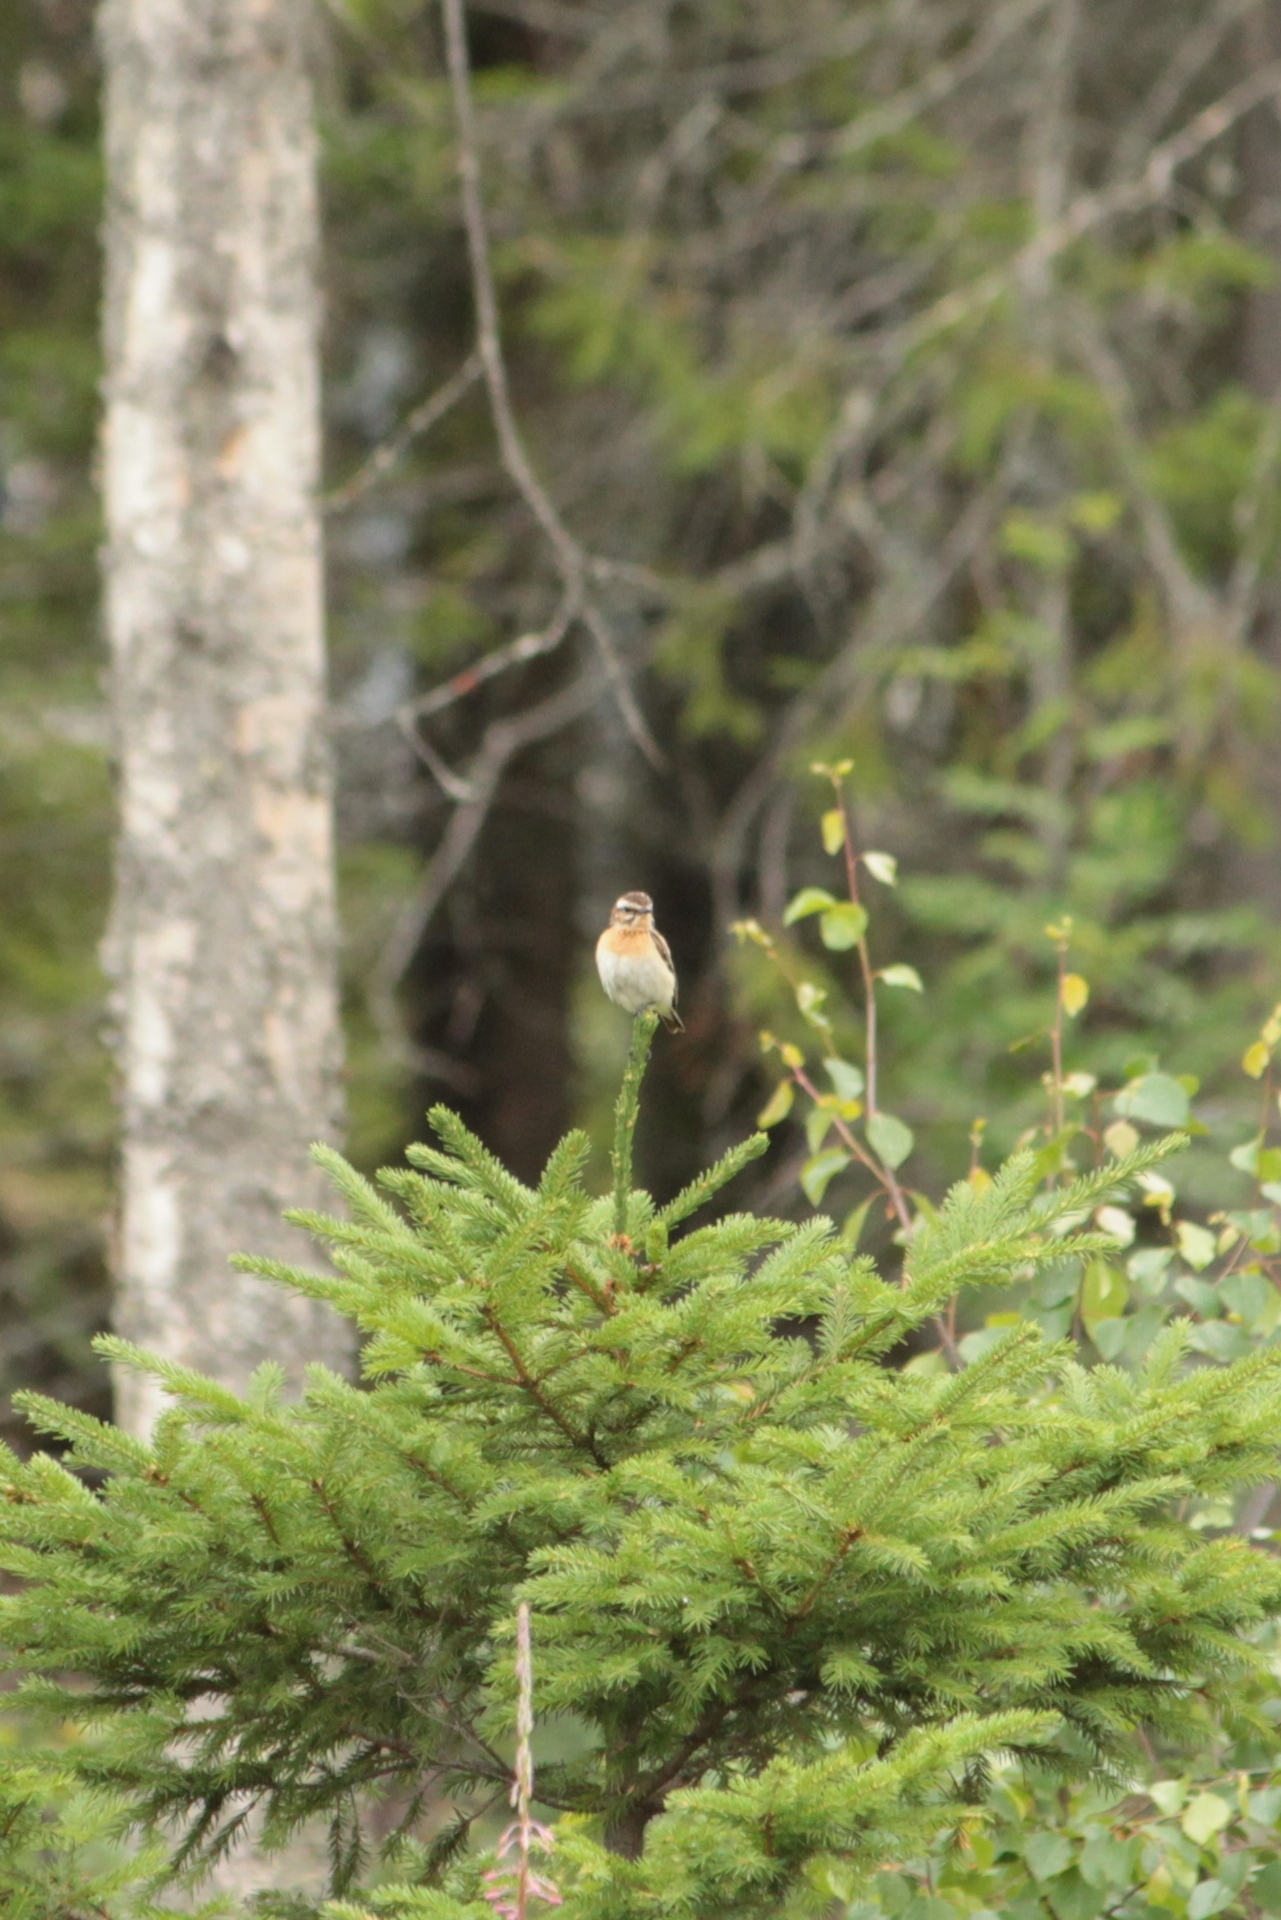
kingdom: Animalia
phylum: Chordata
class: Aves
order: Passeriformes
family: Muscicapidae
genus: Saxicola
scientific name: Saxicola rubetra
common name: Whinchat
